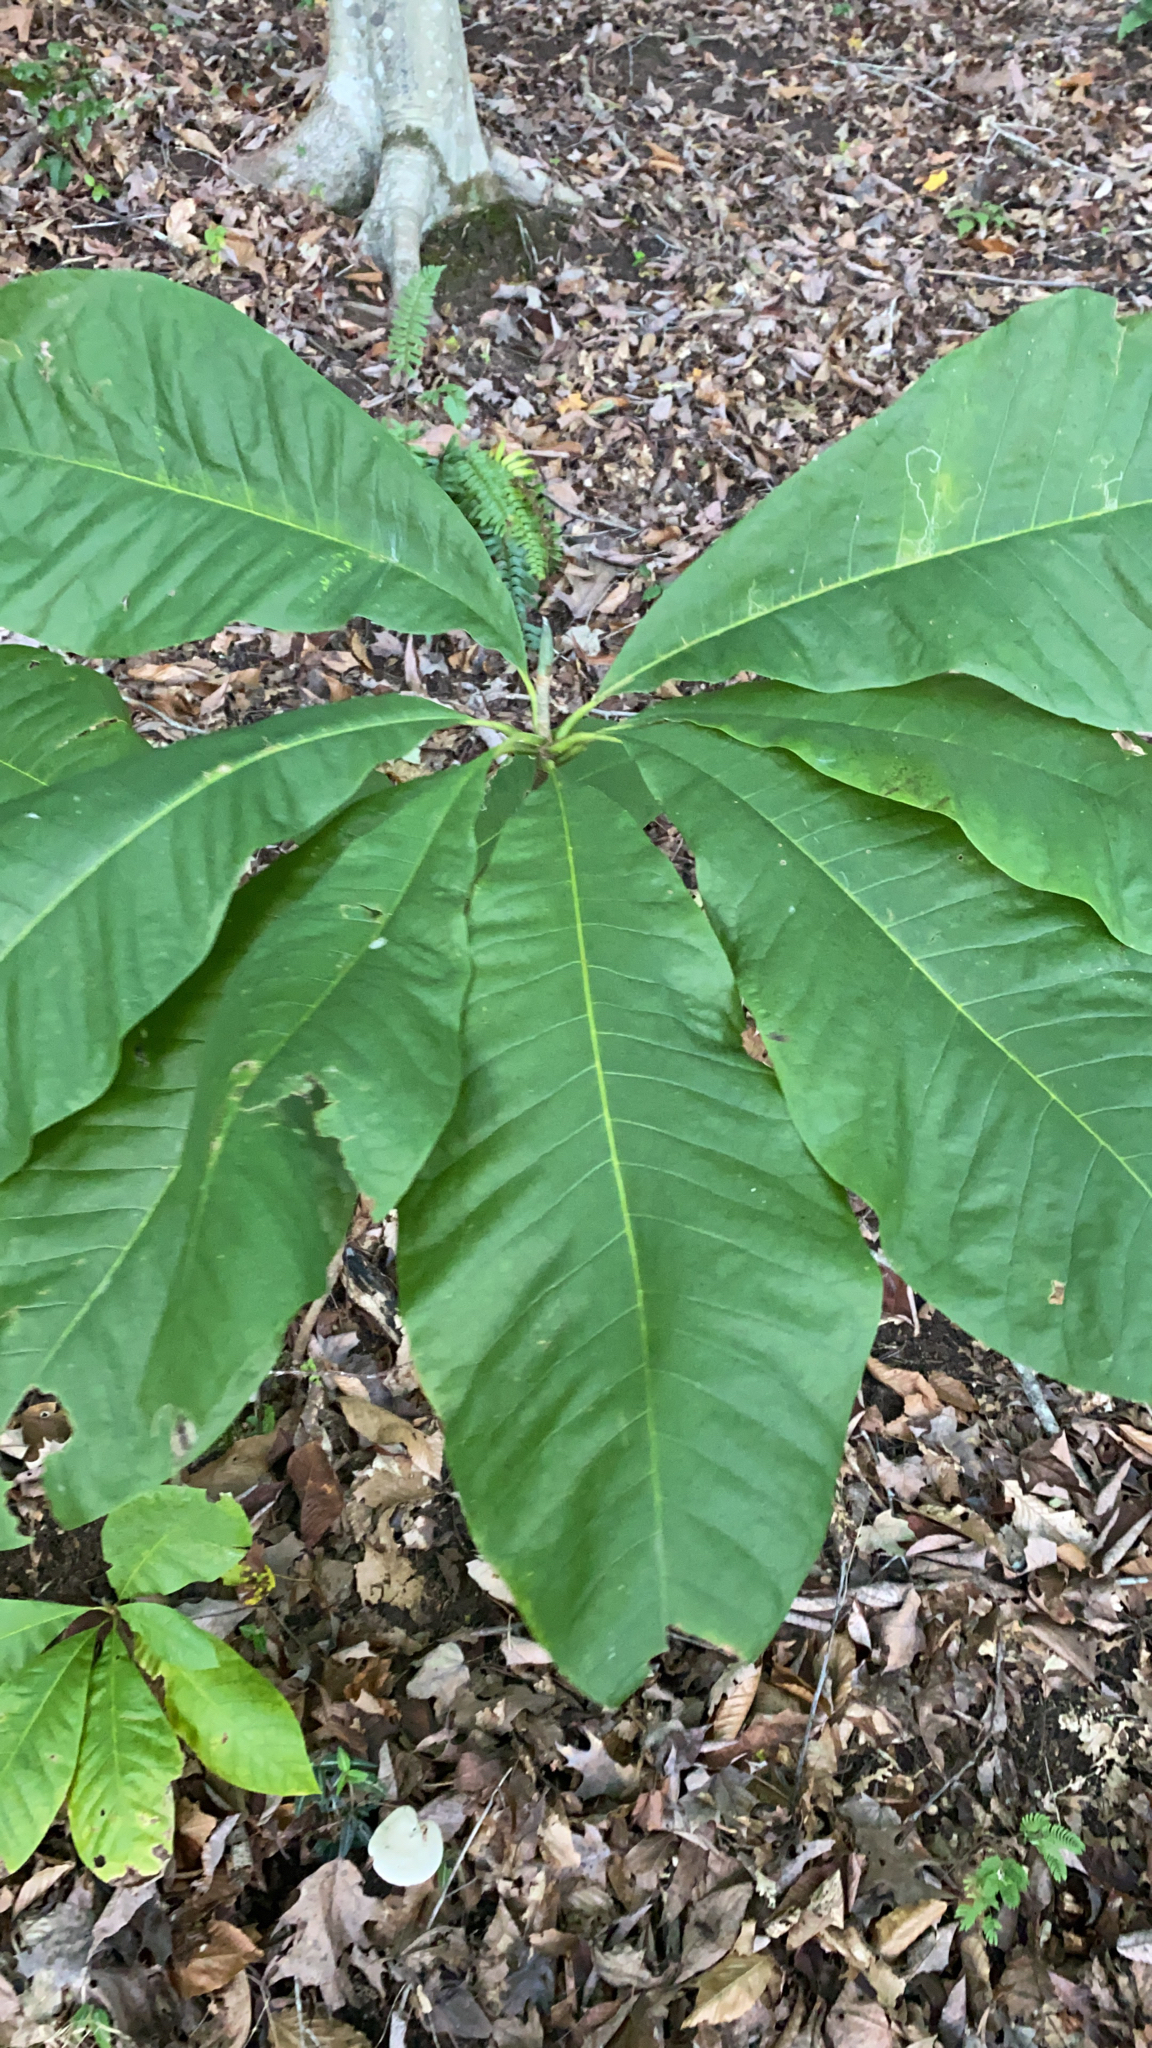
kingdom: Plantae
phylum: Tracheophyta
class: Magnoliopsida
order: Magnoliales
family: Magnoliaceae
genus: Magnolia
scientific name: Magnolia tripetala
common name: Umbrella magnolia
